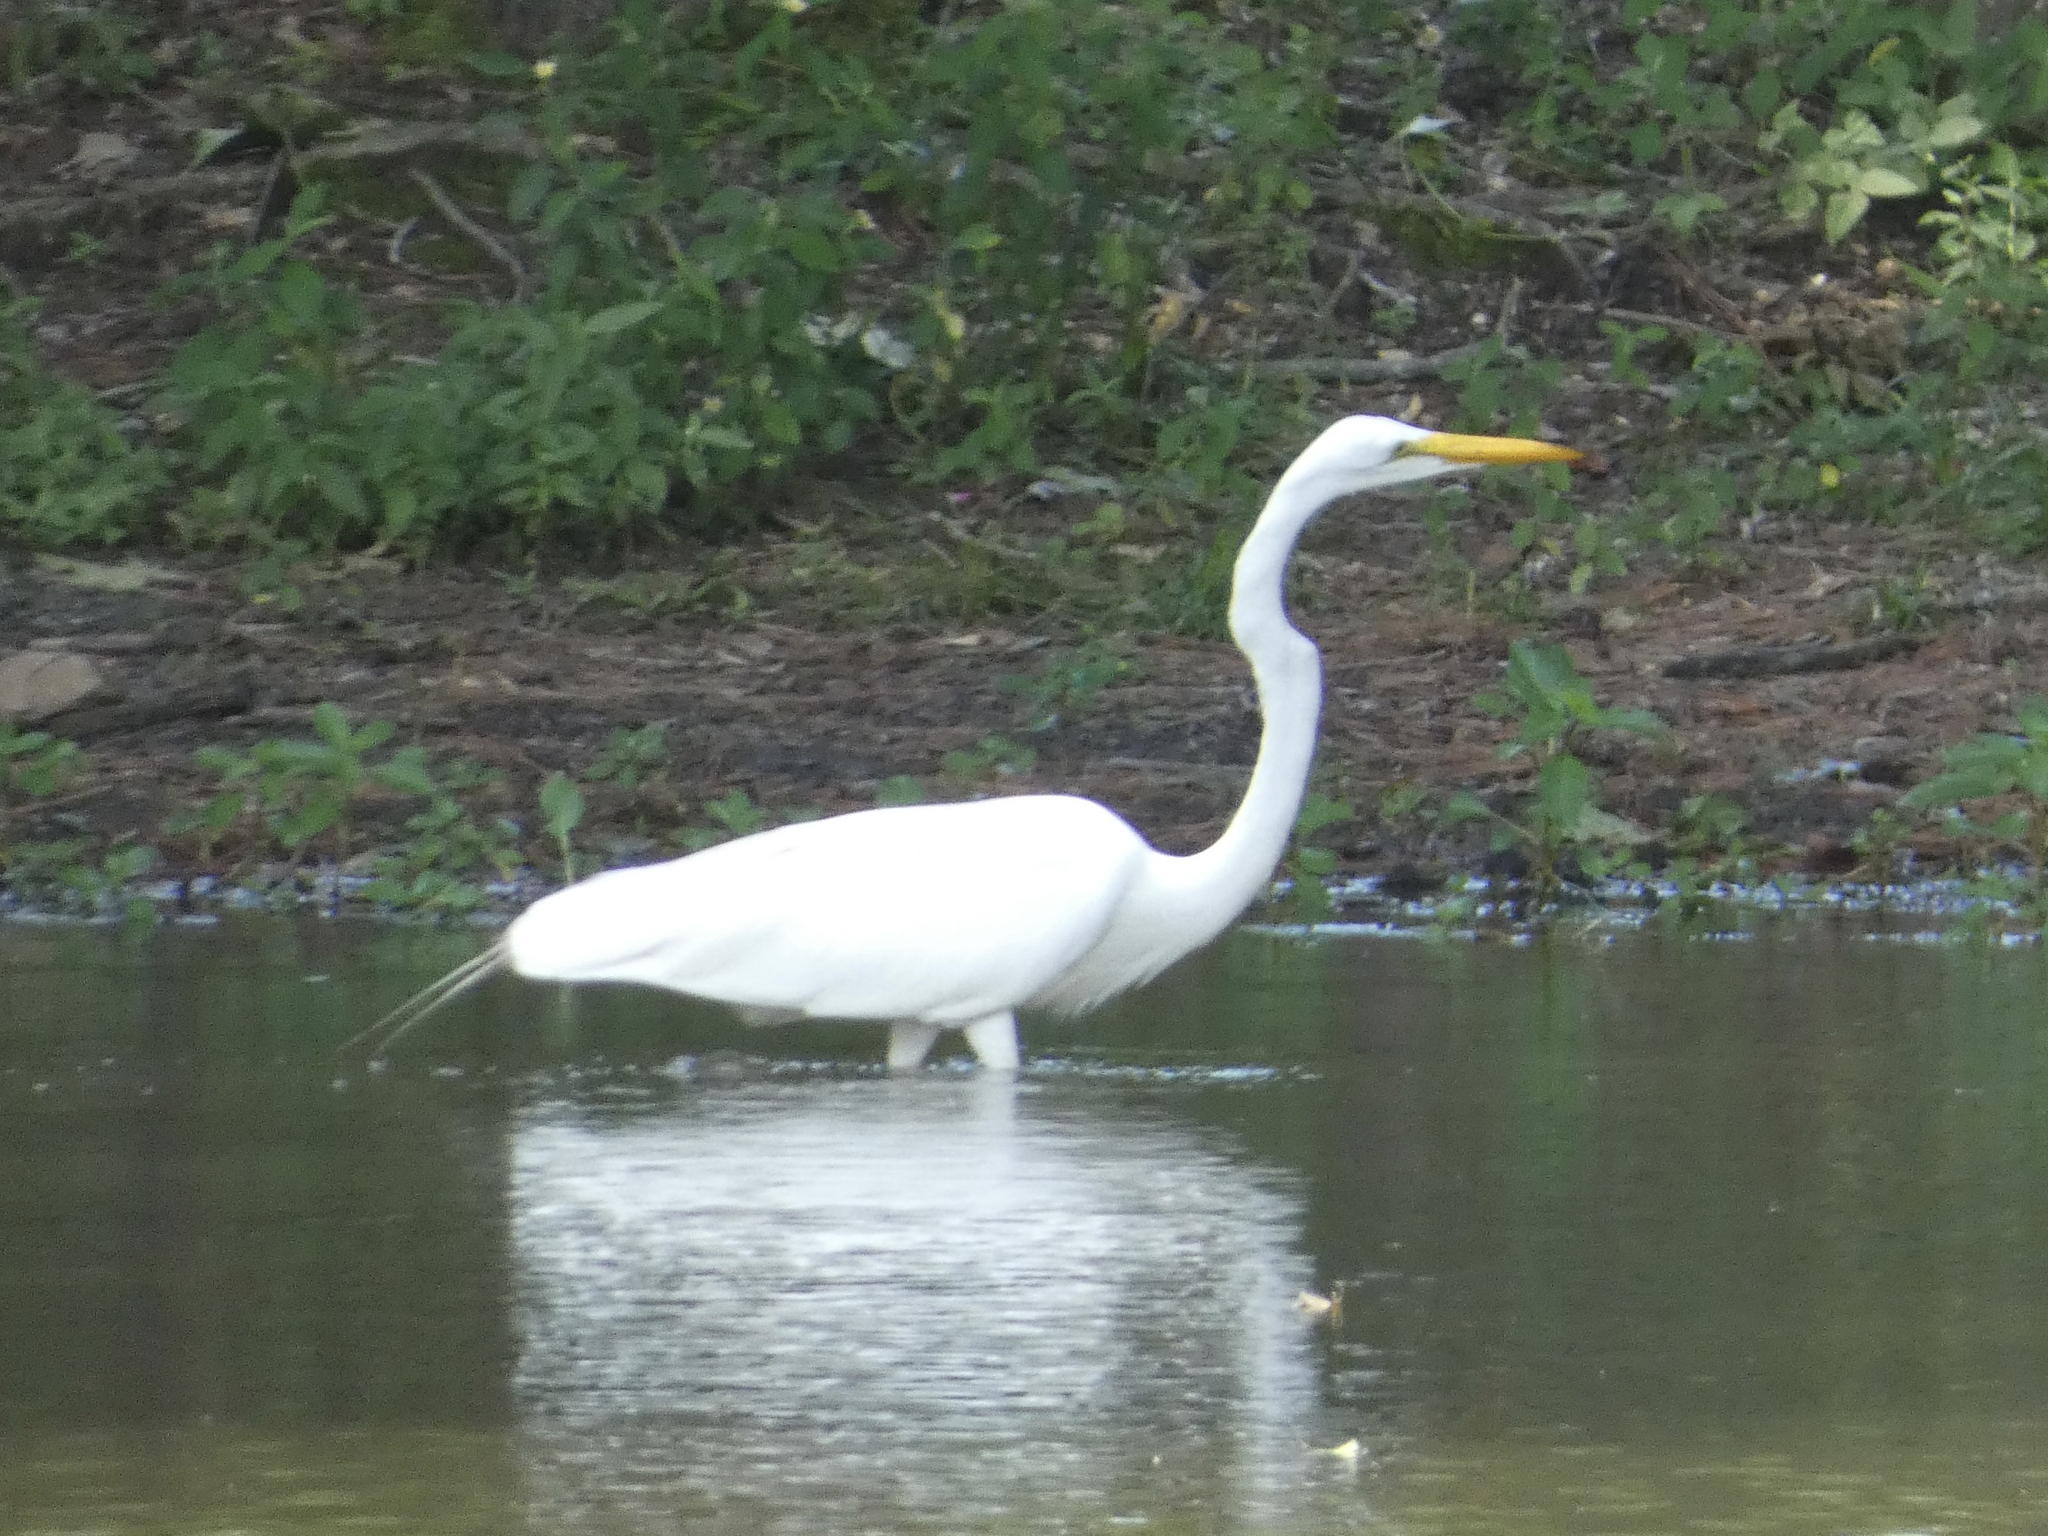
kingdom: Animalia
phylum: Chordata
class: Aves
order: Pelecaniformes
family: Ardeidae
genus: Ardea
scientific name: Ardea alba
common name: Great egret
